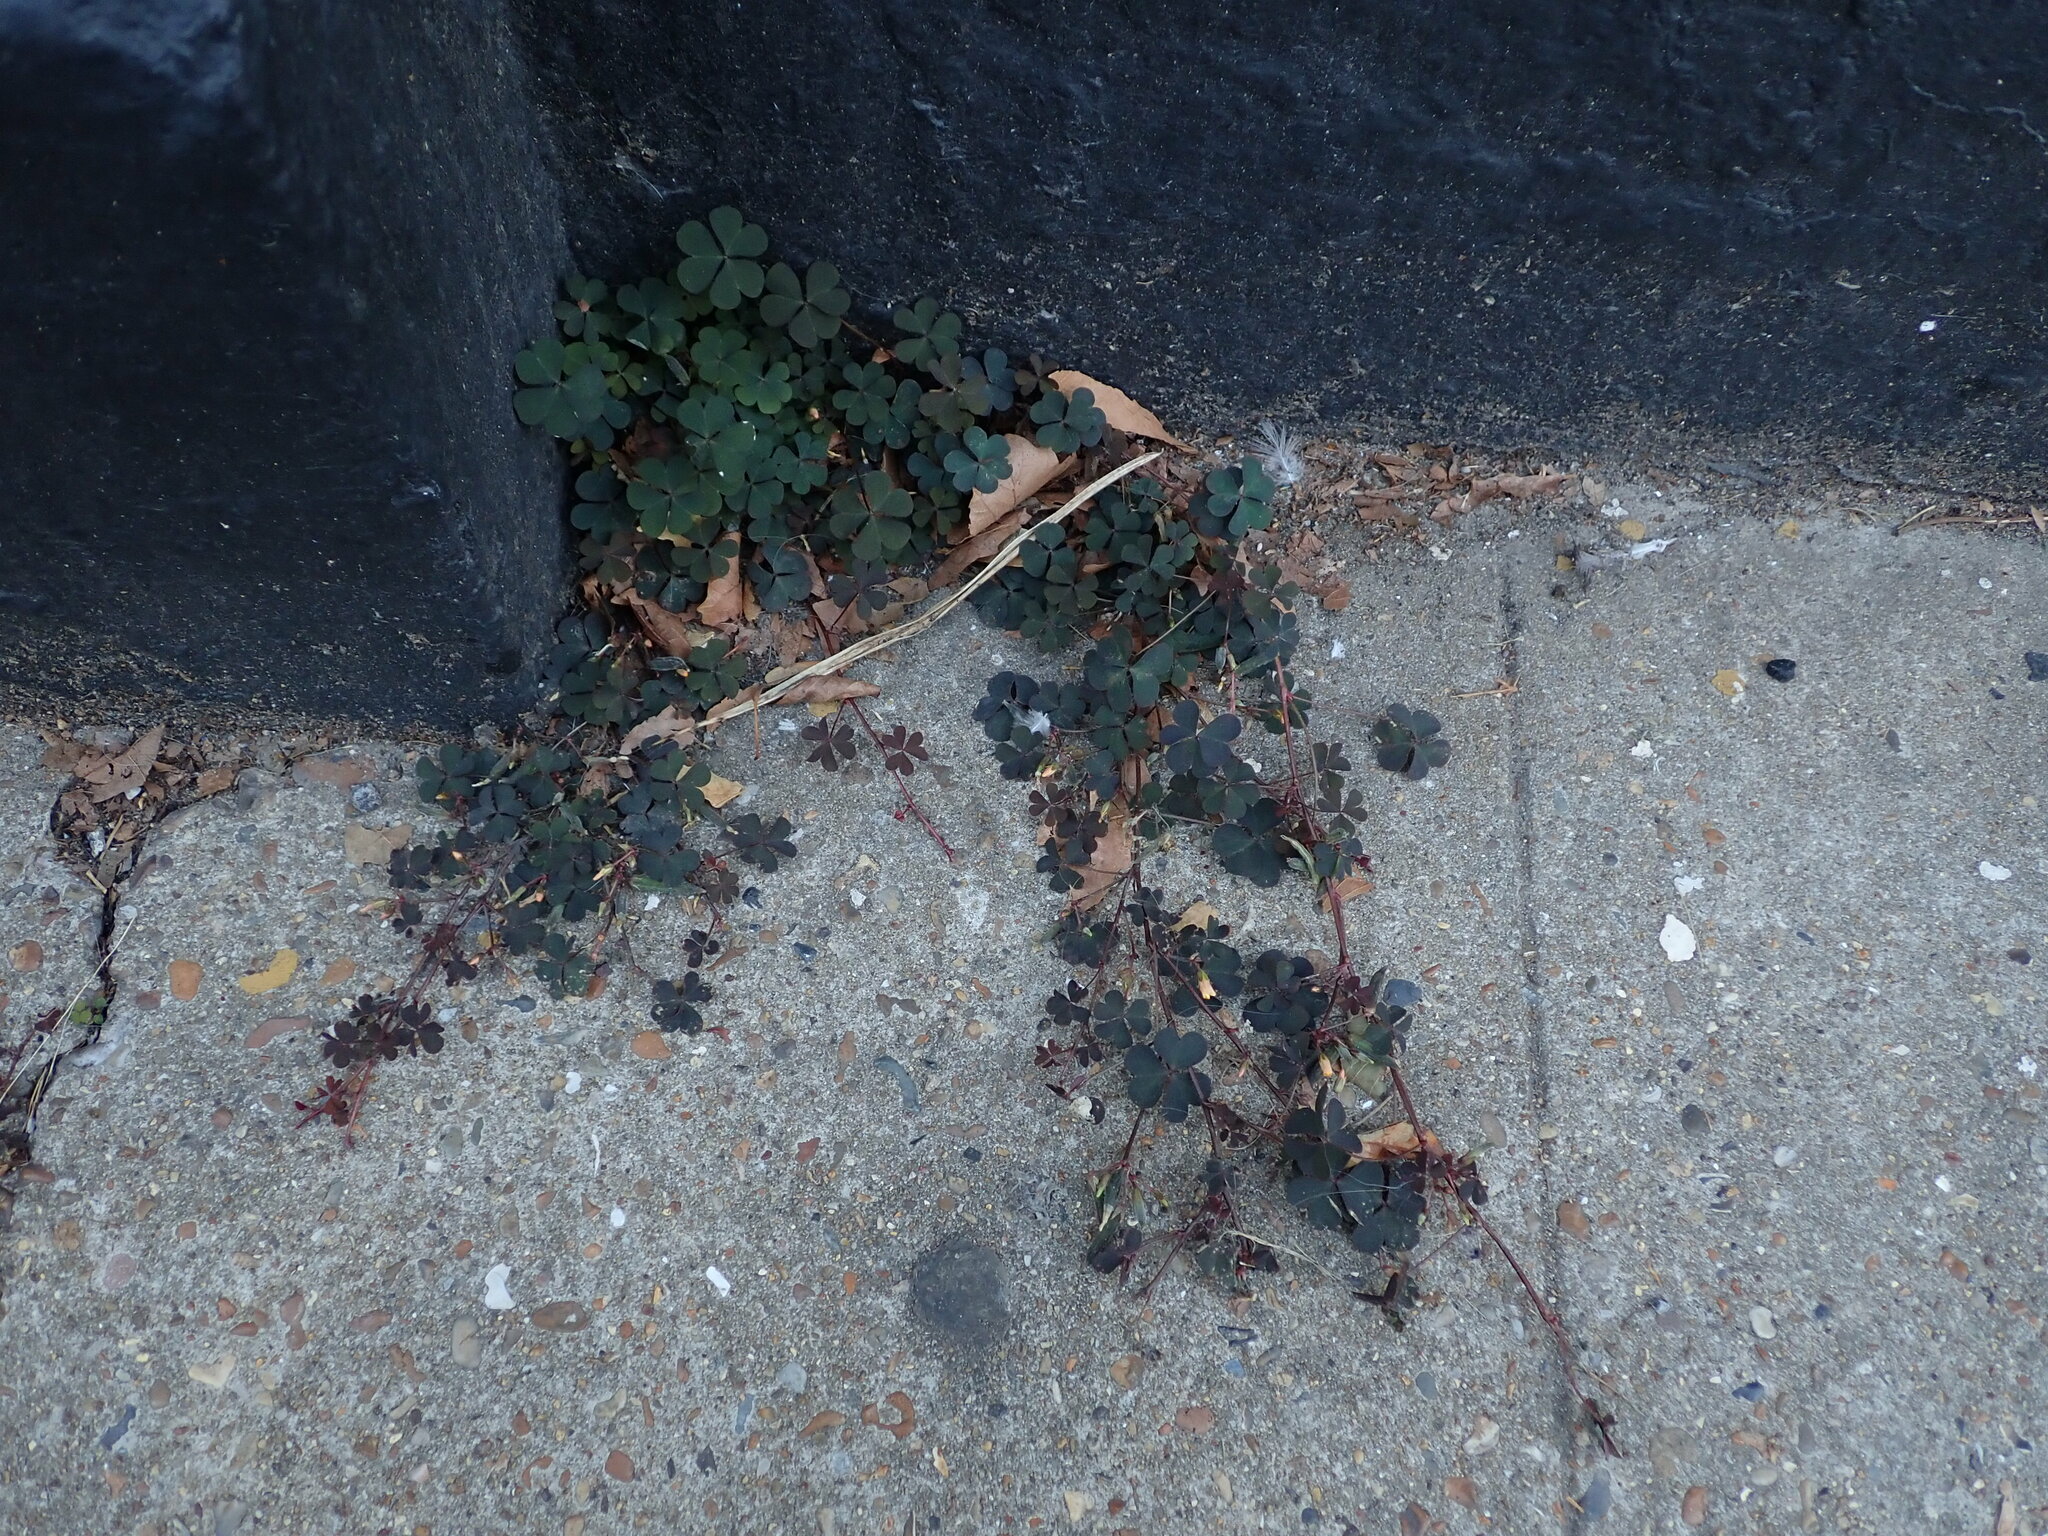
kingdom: Plantae
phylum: Tracheophyta
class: Magnoliopsida
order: Oxalidales
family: Oxalidaceae
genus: Oxalis
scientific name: Oxalis corniculata
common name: Procumbent yellow-sorrel
